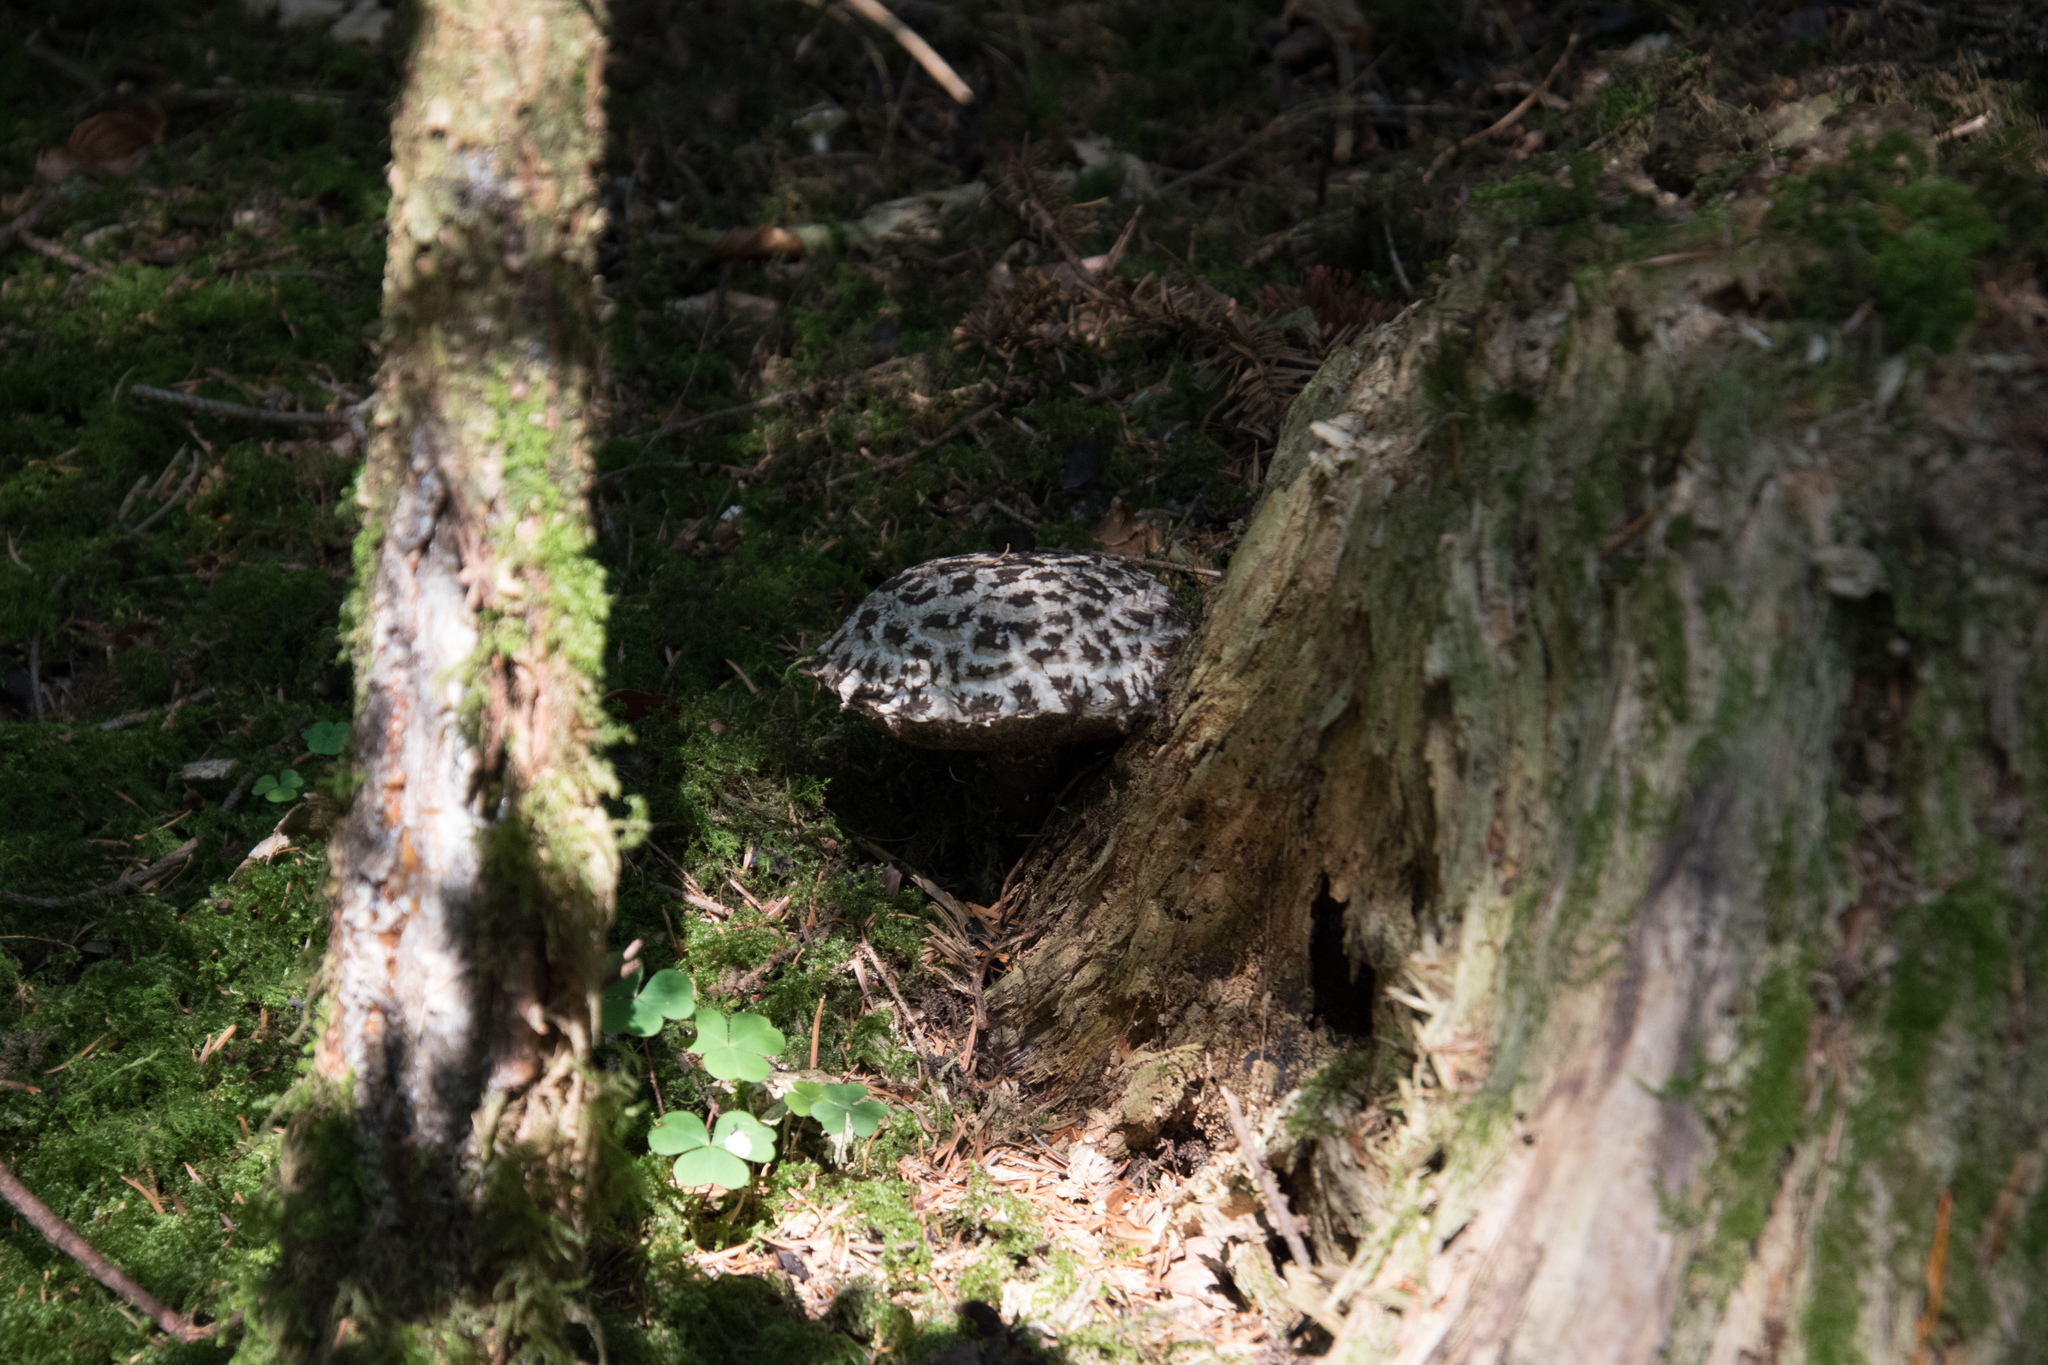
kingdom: Fungi
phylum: Basidiomycota
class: Agaricomycetes
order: Boletales
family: Boletaceae
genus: Strobilomyces
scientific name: Strobilomyces strobilaceus
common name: Old man of the woods
